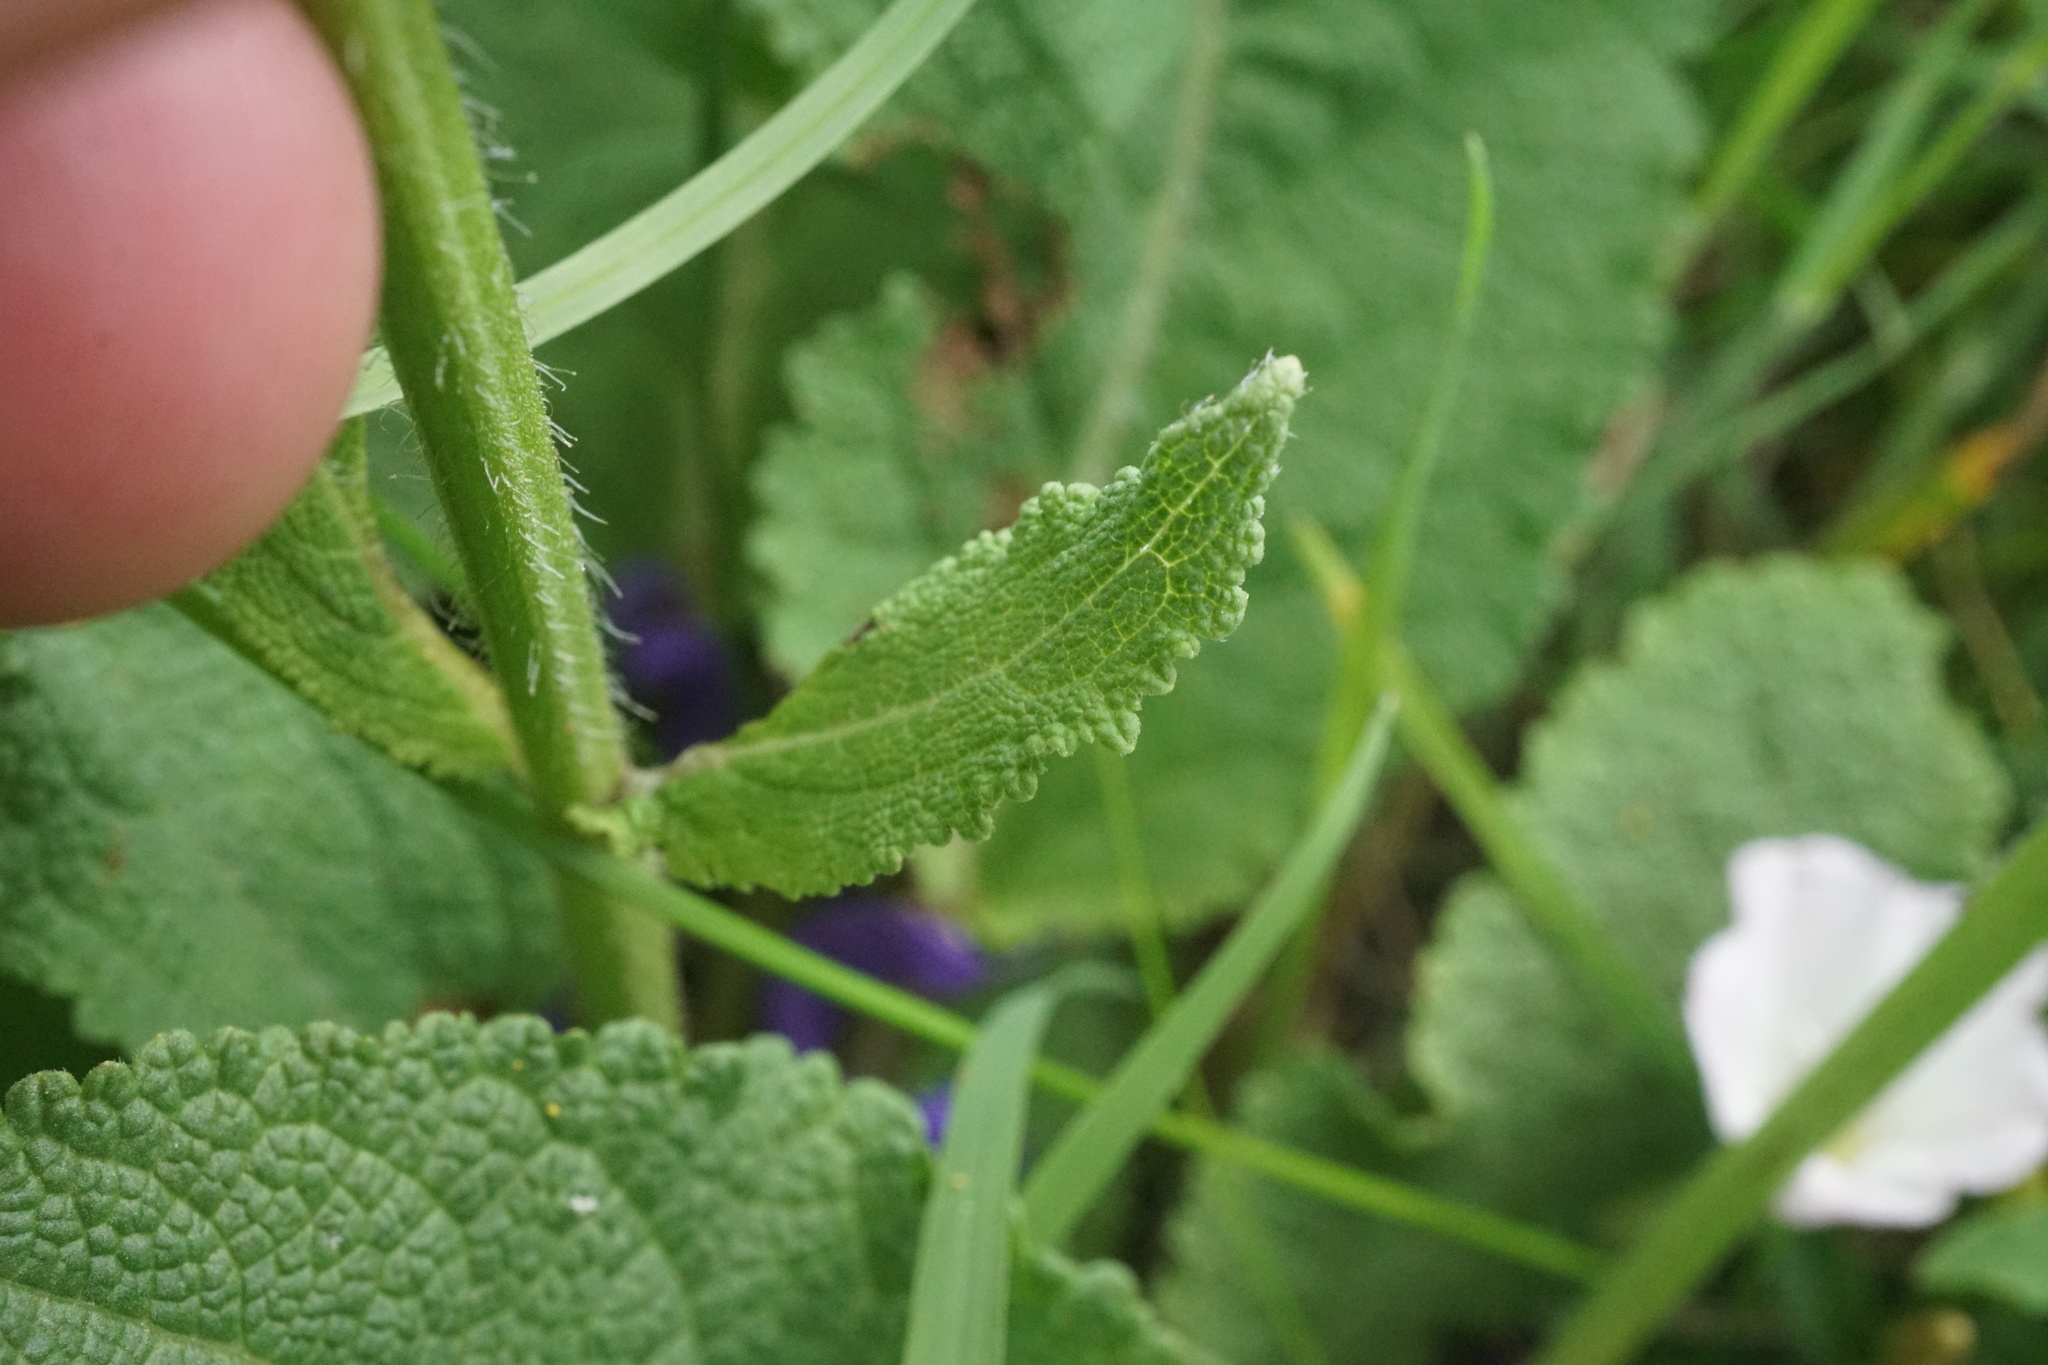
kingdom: Plantae
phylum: Tracheophyta
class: Magnoliopsida
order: Lamiales
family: Lamiaceae
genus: Salvia
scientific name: Salvia pratensis
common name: Meadow sage
